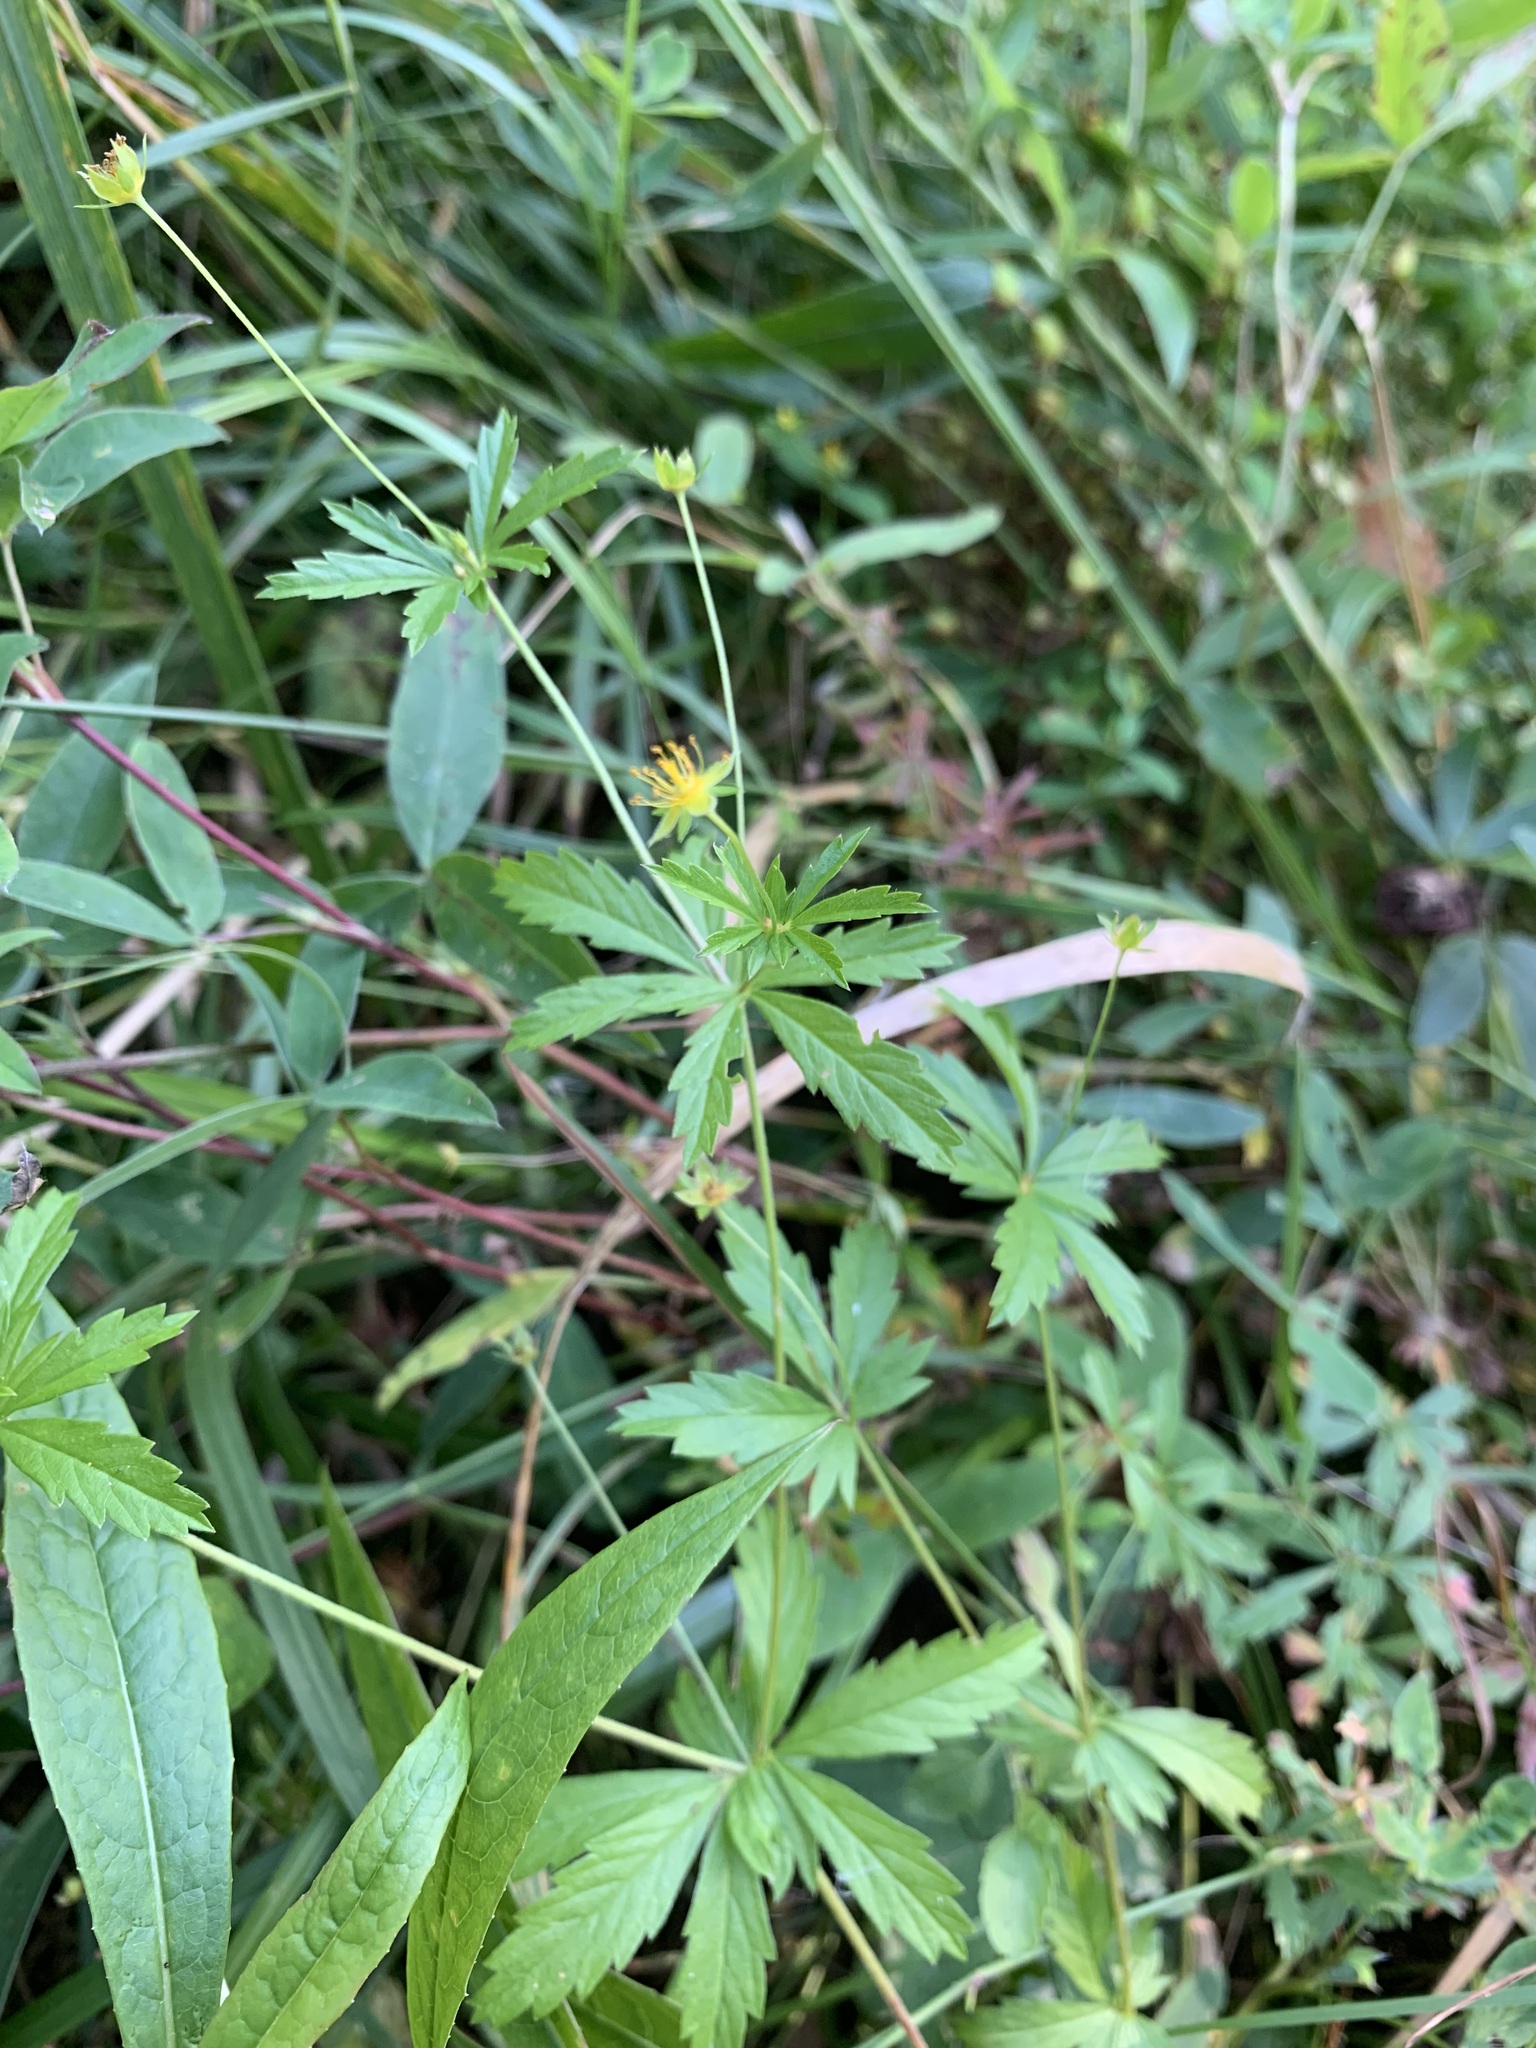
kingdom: Plantae
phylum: Tracheophyta
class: Magnoliopsida
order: Rosales
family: Rosaceae
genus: Potentilla
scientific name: Potentilla erecta
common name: Tormentil
